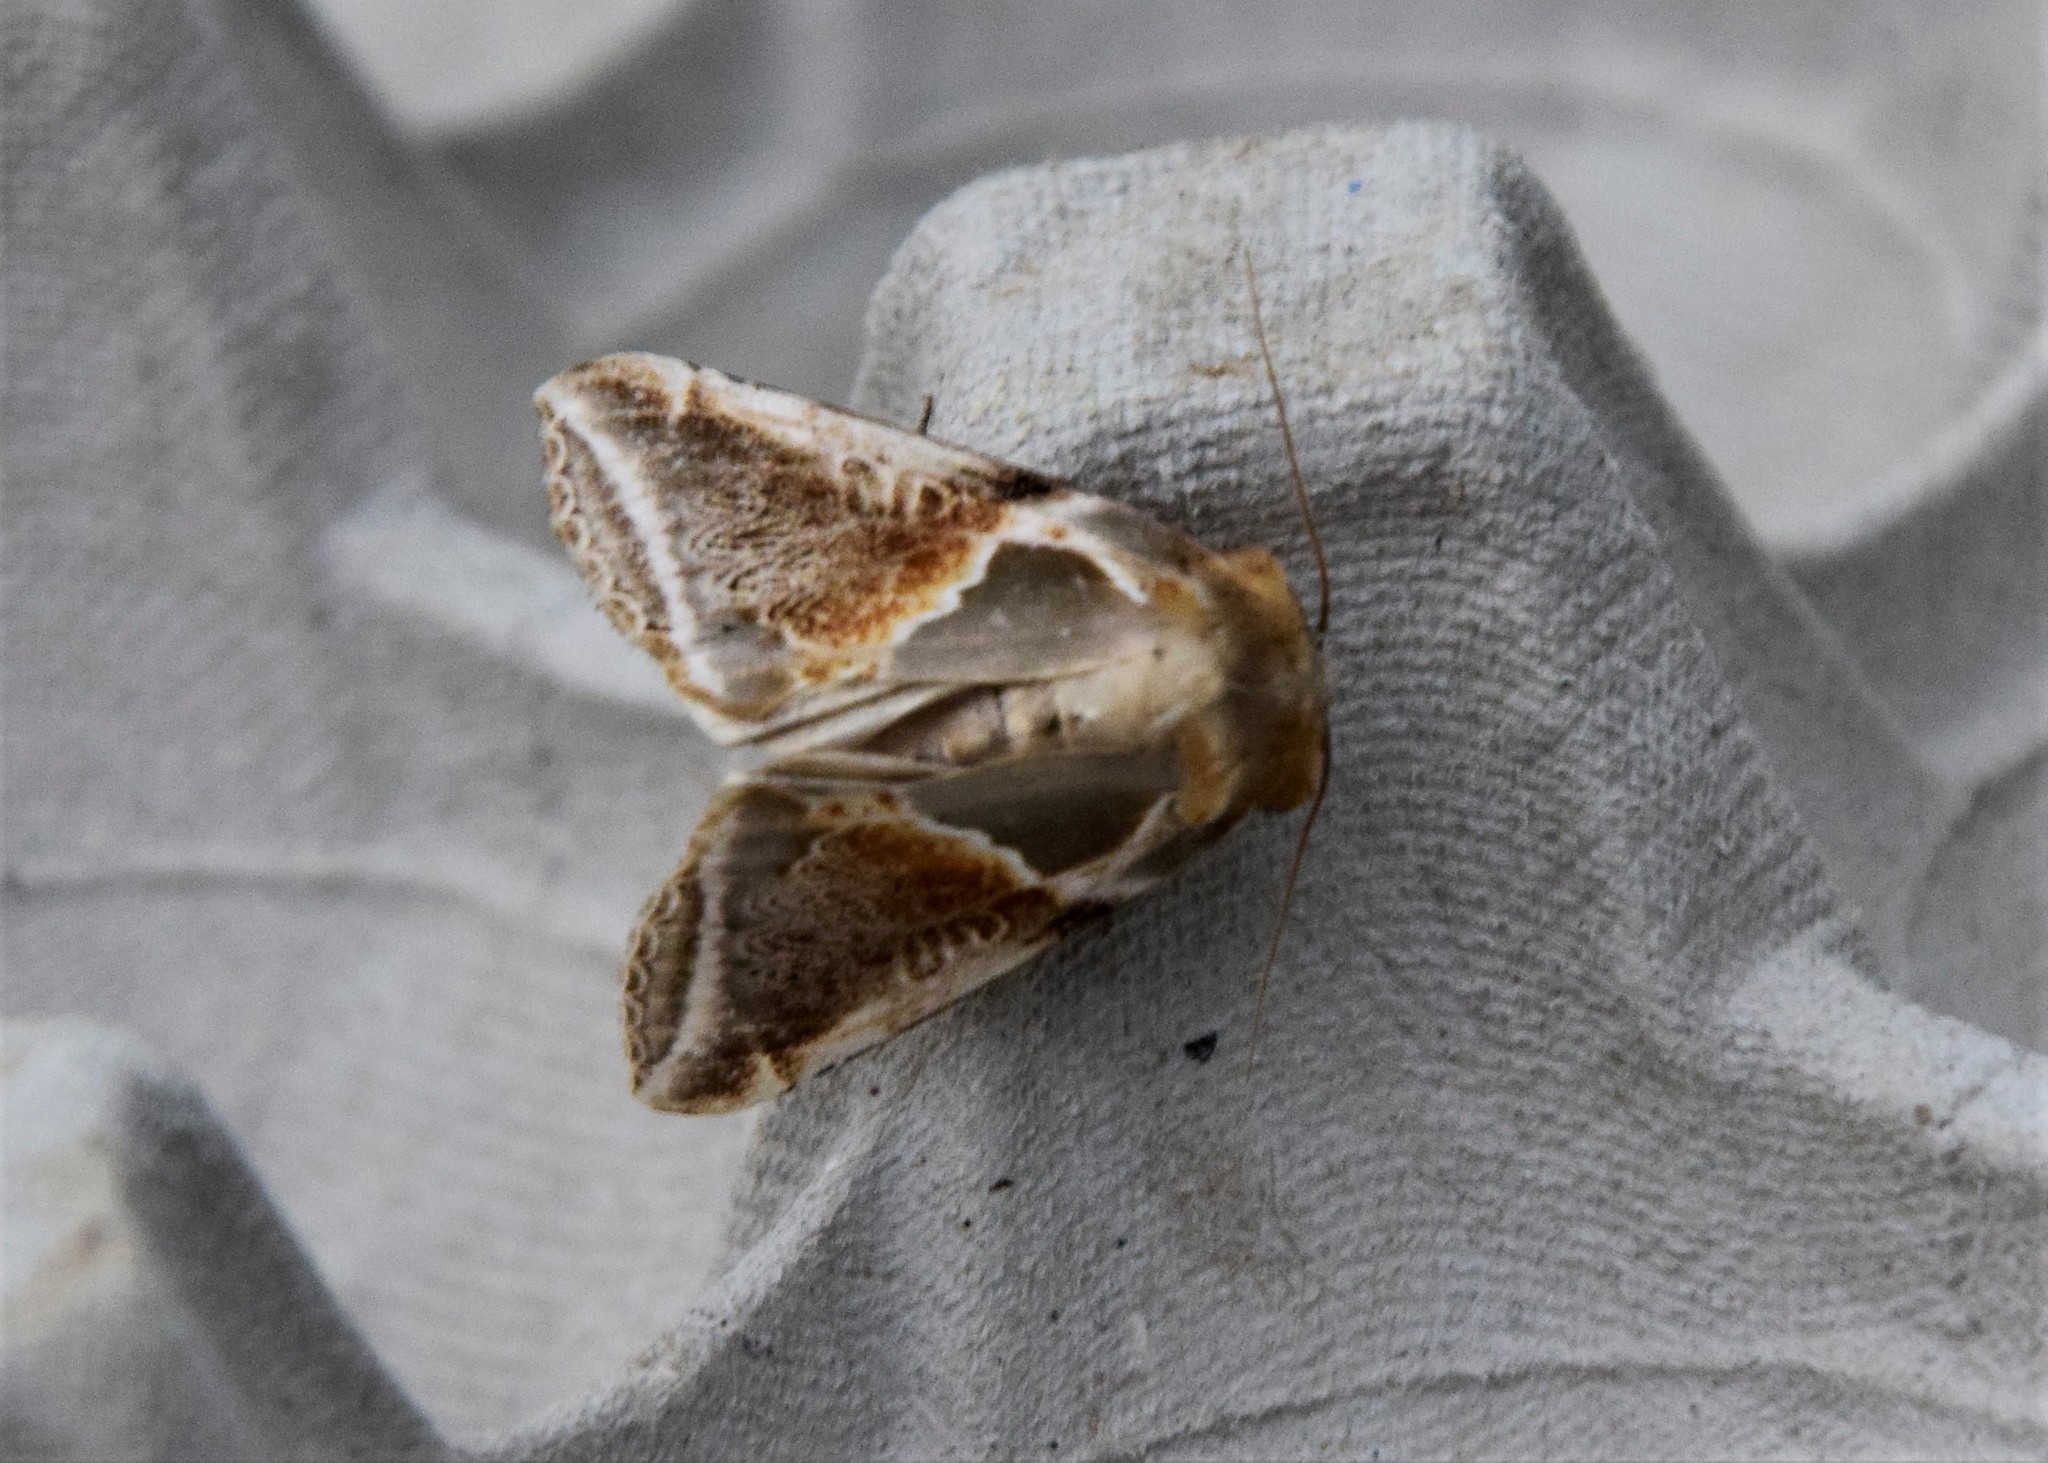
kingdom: Animalia
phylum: Arthropoda
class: Insecta
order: Lepidoptera
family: Drepanidae
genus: Habrosyne
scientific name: Habrosyne pyritoides
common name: Buff arches
